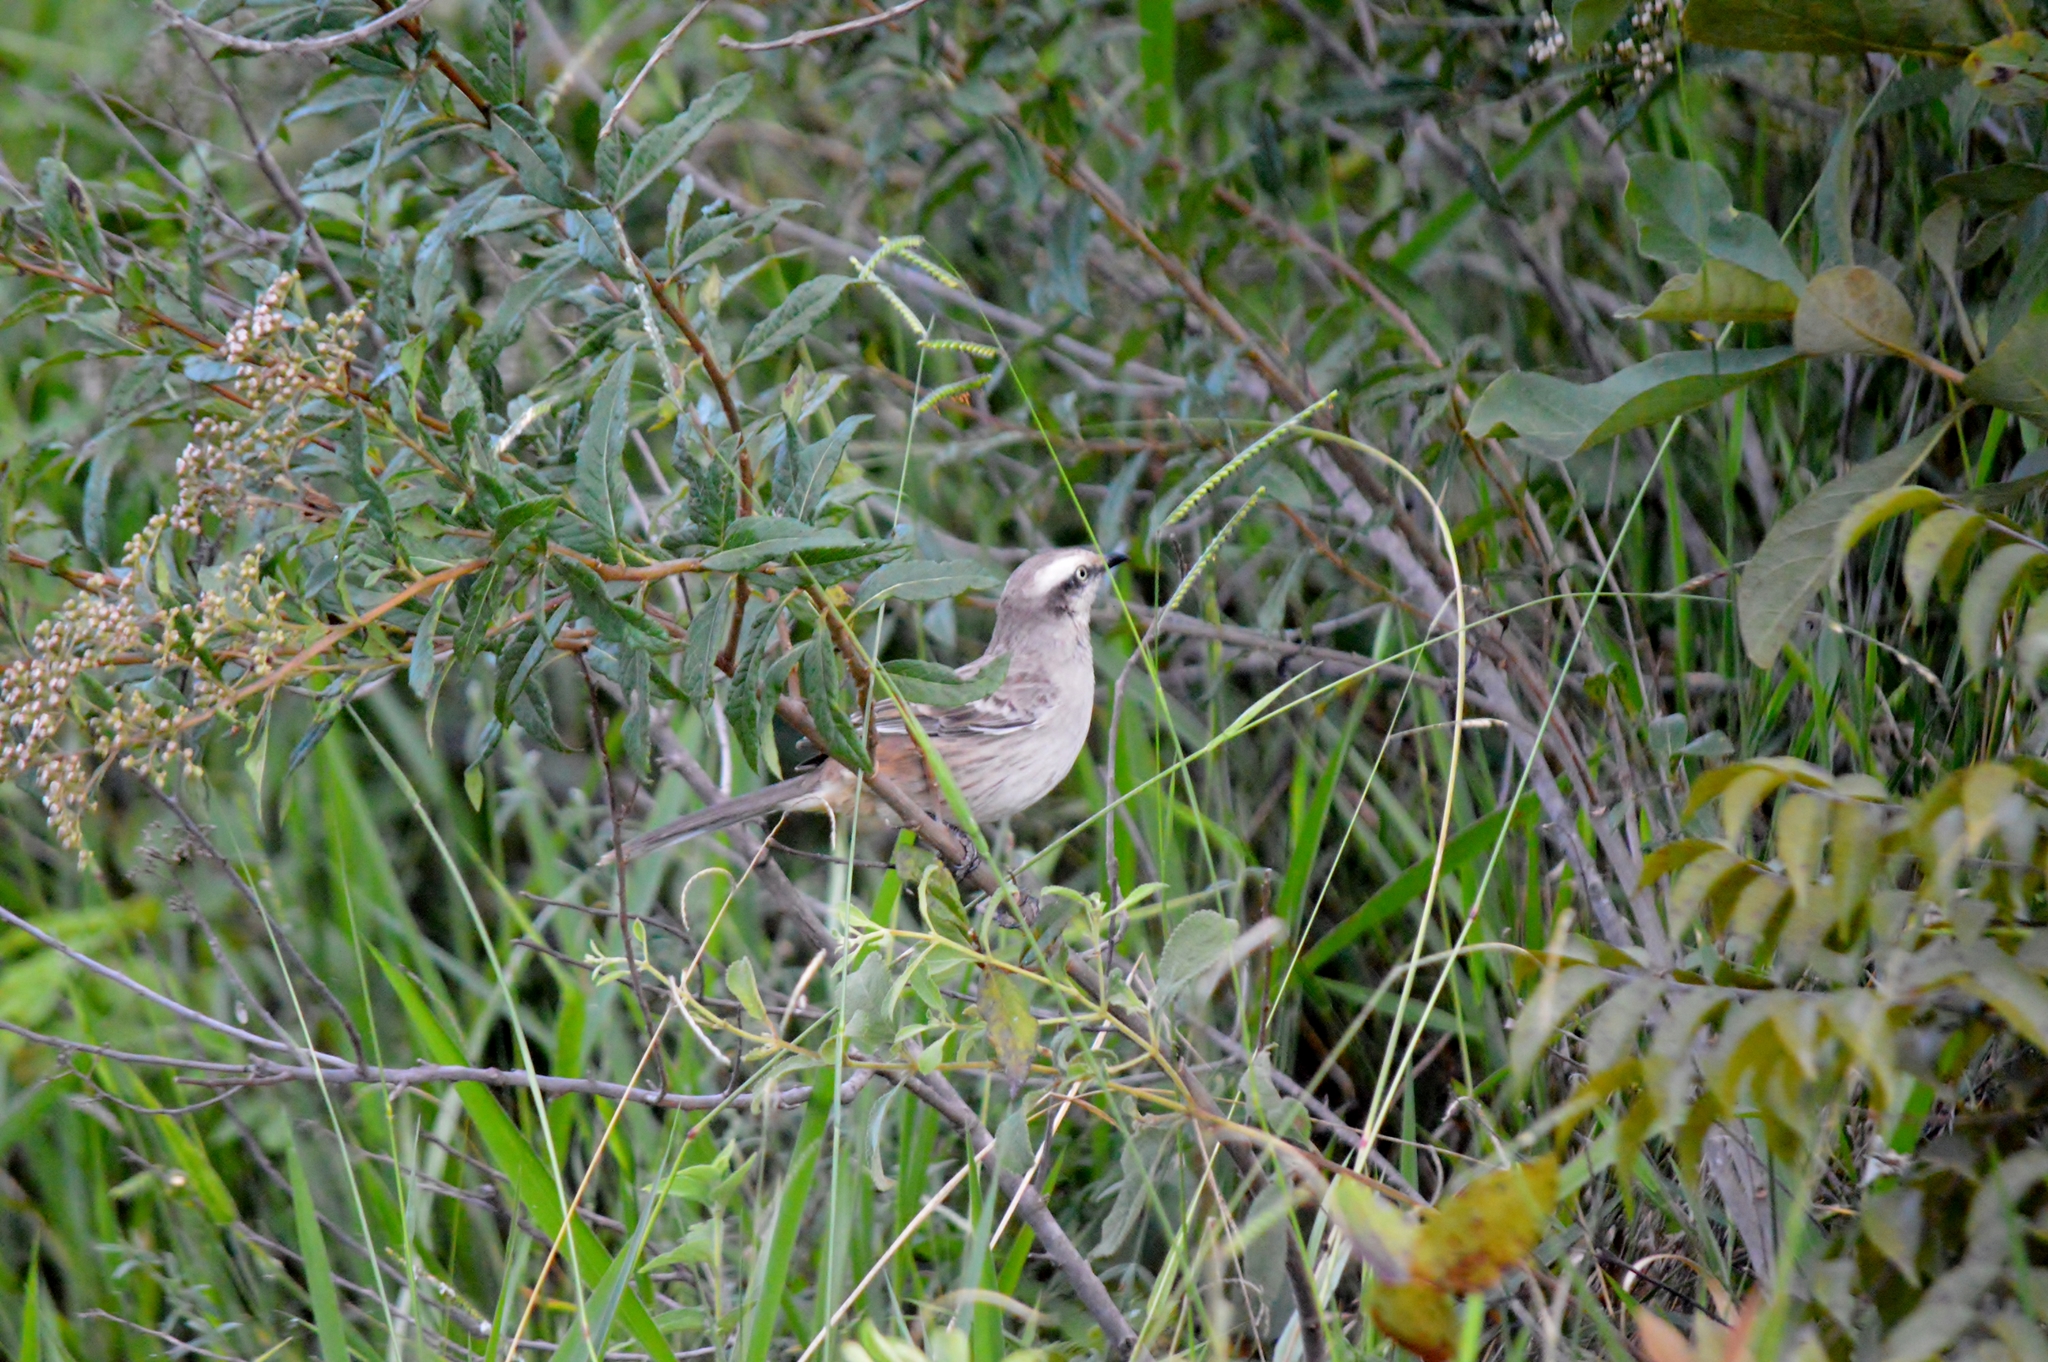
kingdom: Animalia
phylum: Chordata
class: Aves
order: Passeriformes
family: Mimidae
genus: Mimus
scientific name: Mimus saturninus
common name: Chalk-browed mockingbird
